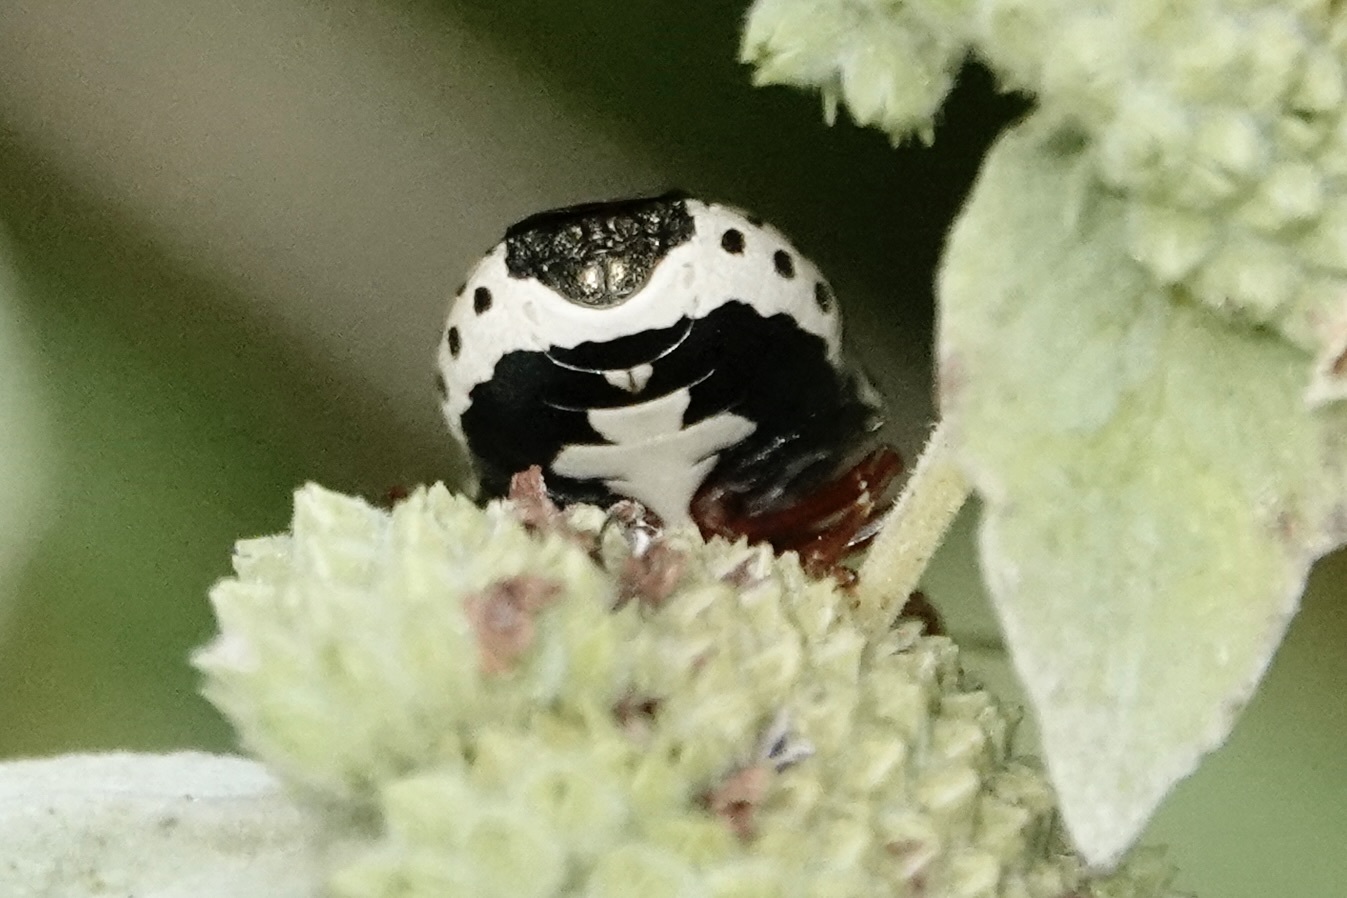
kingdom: Animalia
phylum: Arthropoda
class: Insecta
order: Hemiptera
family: Pentatomidae
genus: Stiretrus
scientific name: Stiretrus anchorago
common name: Anchor stink bug
